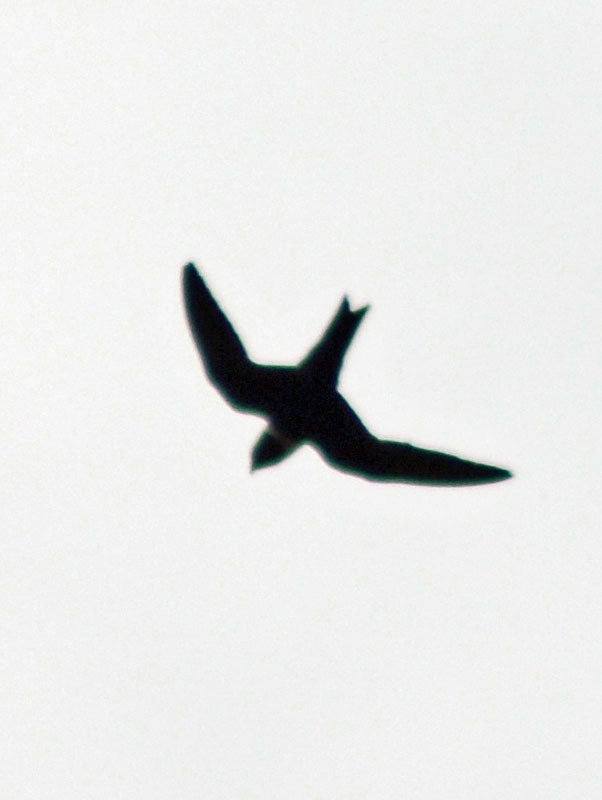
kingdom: Animalia
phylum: Chordata
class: Aves
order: Apodiformes
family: Apodidae
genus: Streptoprocne
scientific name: Streptoprocne zonaris
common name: White-collared swift
